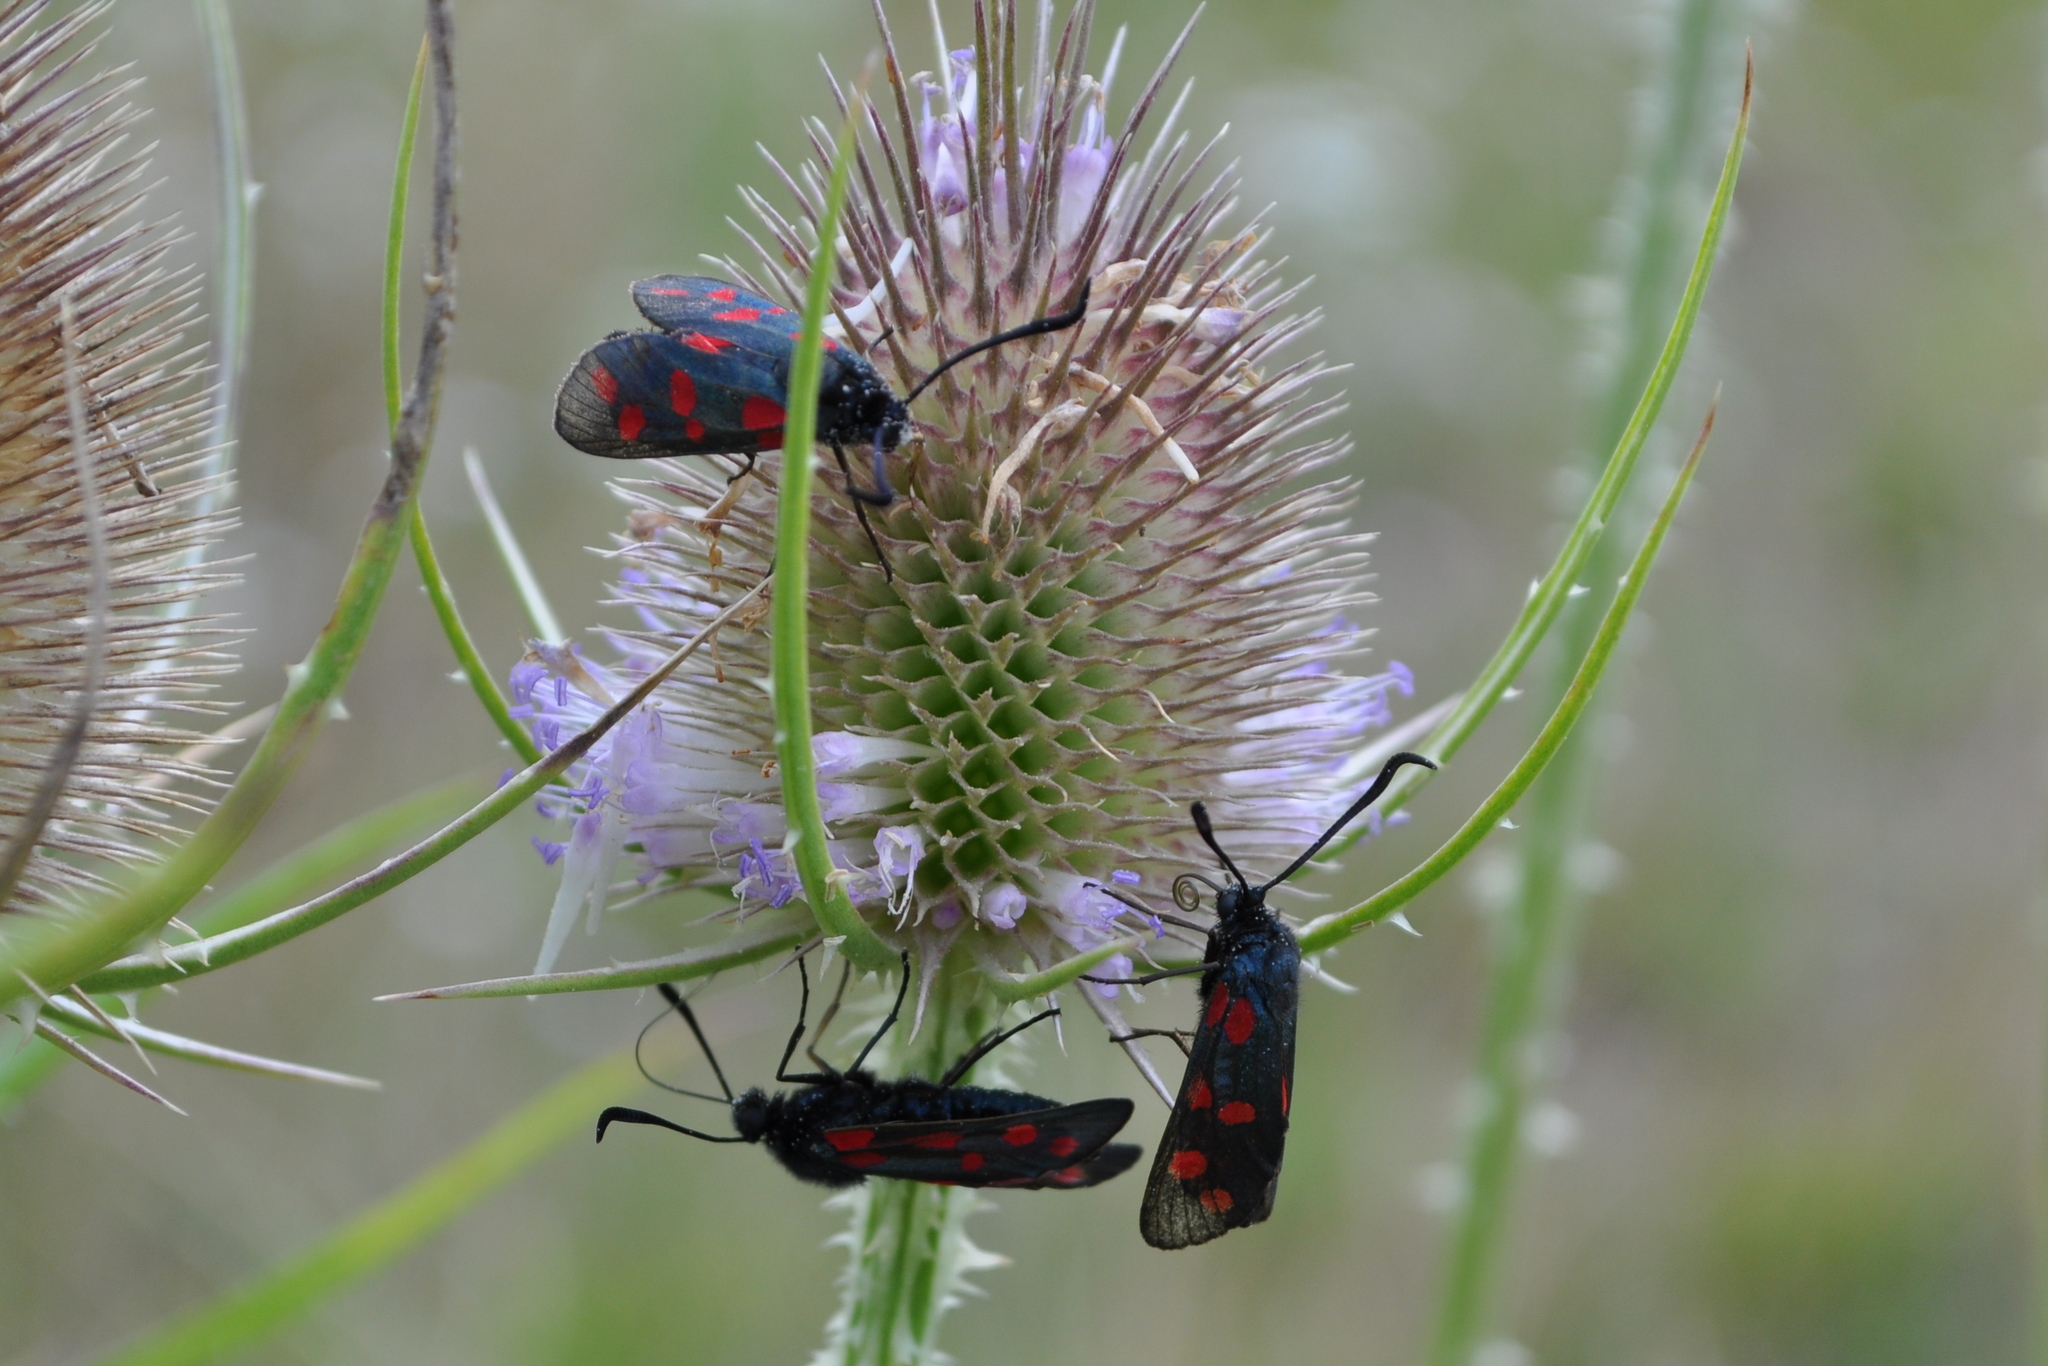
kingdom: Animalia
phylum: Arthropoda
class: Insecta
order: Lepidoptera
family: Zygaenidae
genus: Zygaena
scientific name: Zygaena filipendulae
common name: Six-spot burnet
